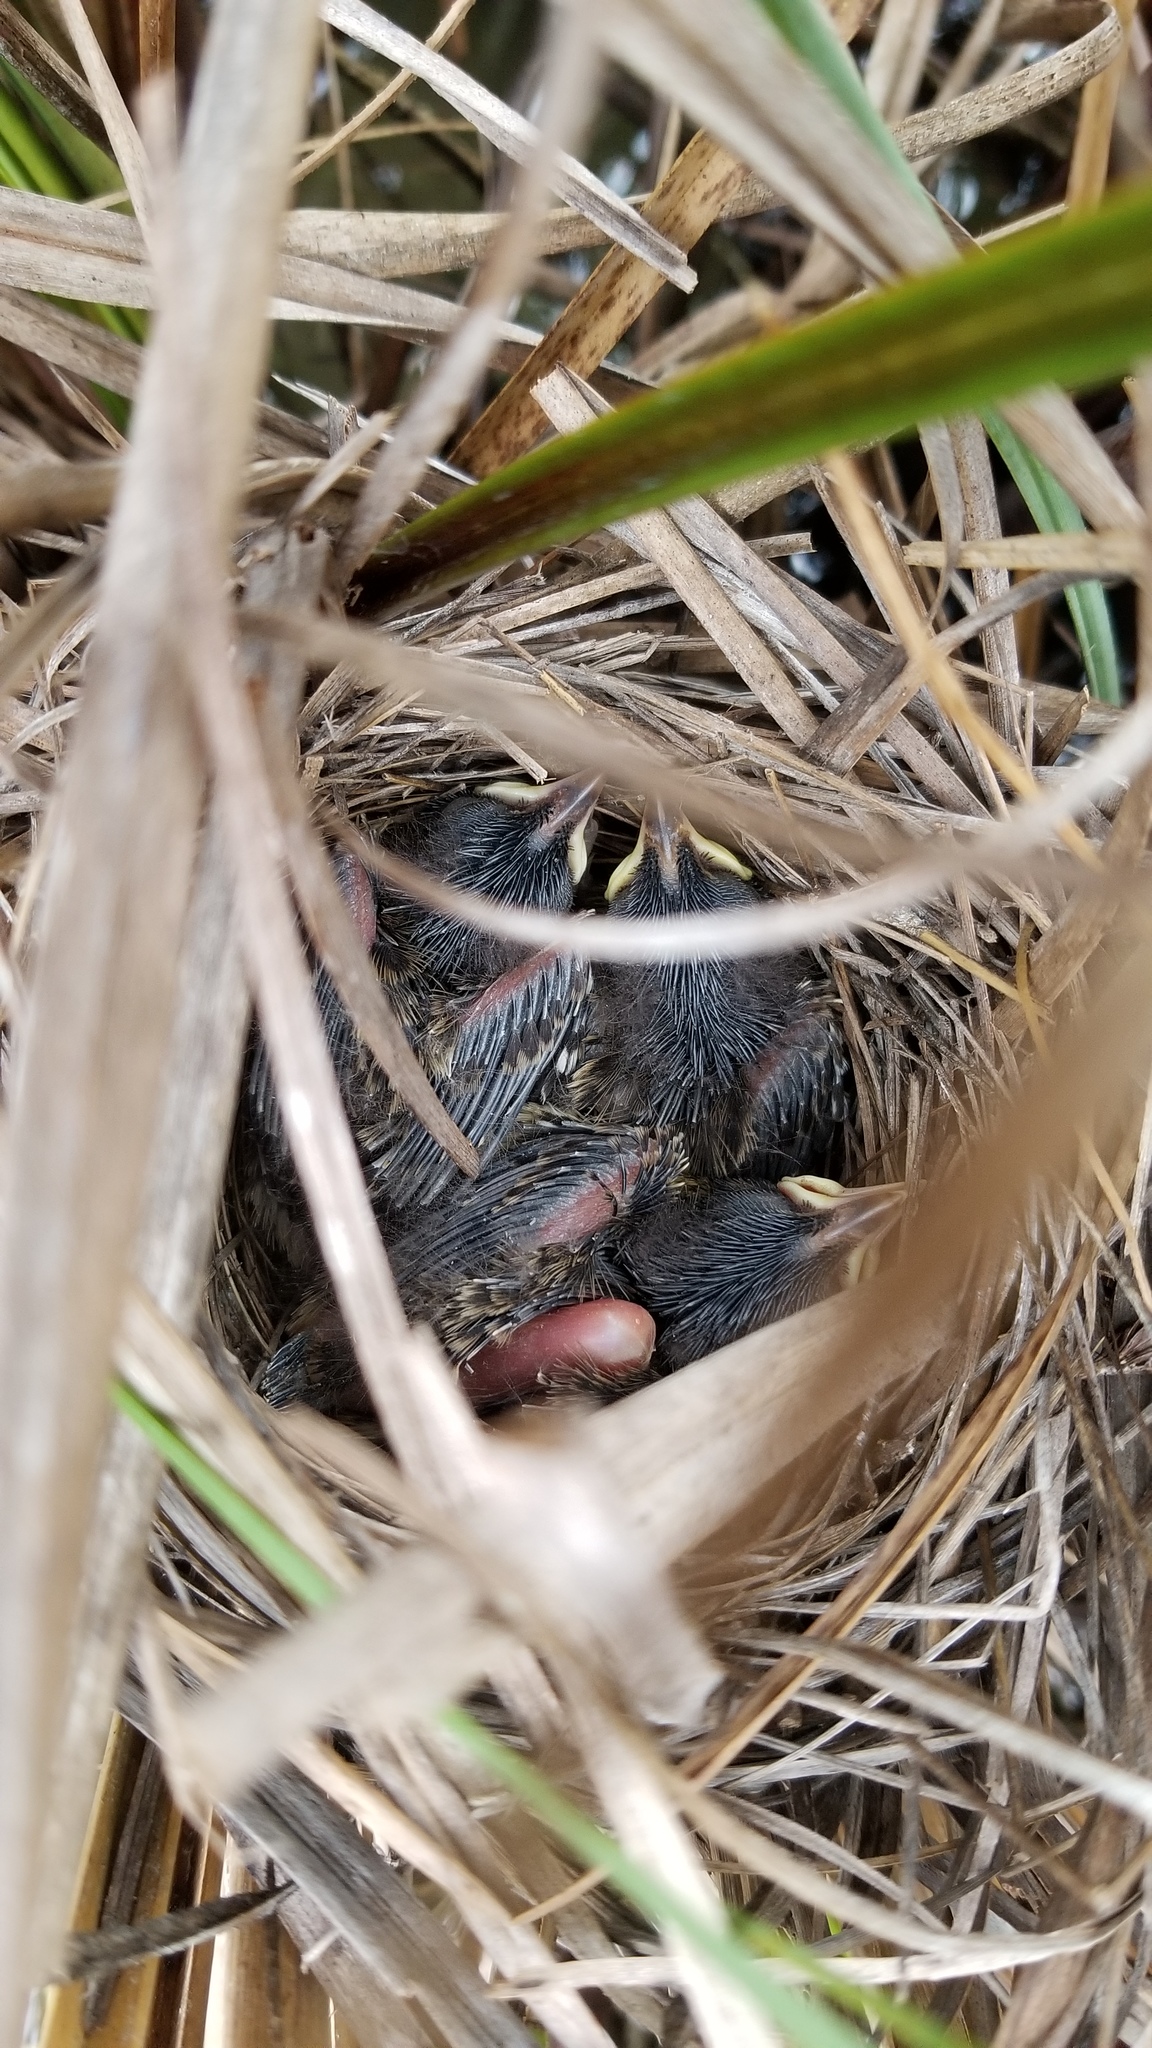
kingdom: Animalia
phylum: Chordata
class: Aves
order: Passeriformes
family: Passerellidae
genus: Ammospiza
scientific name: Ammospiza maritima
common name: Seaside sparrow
